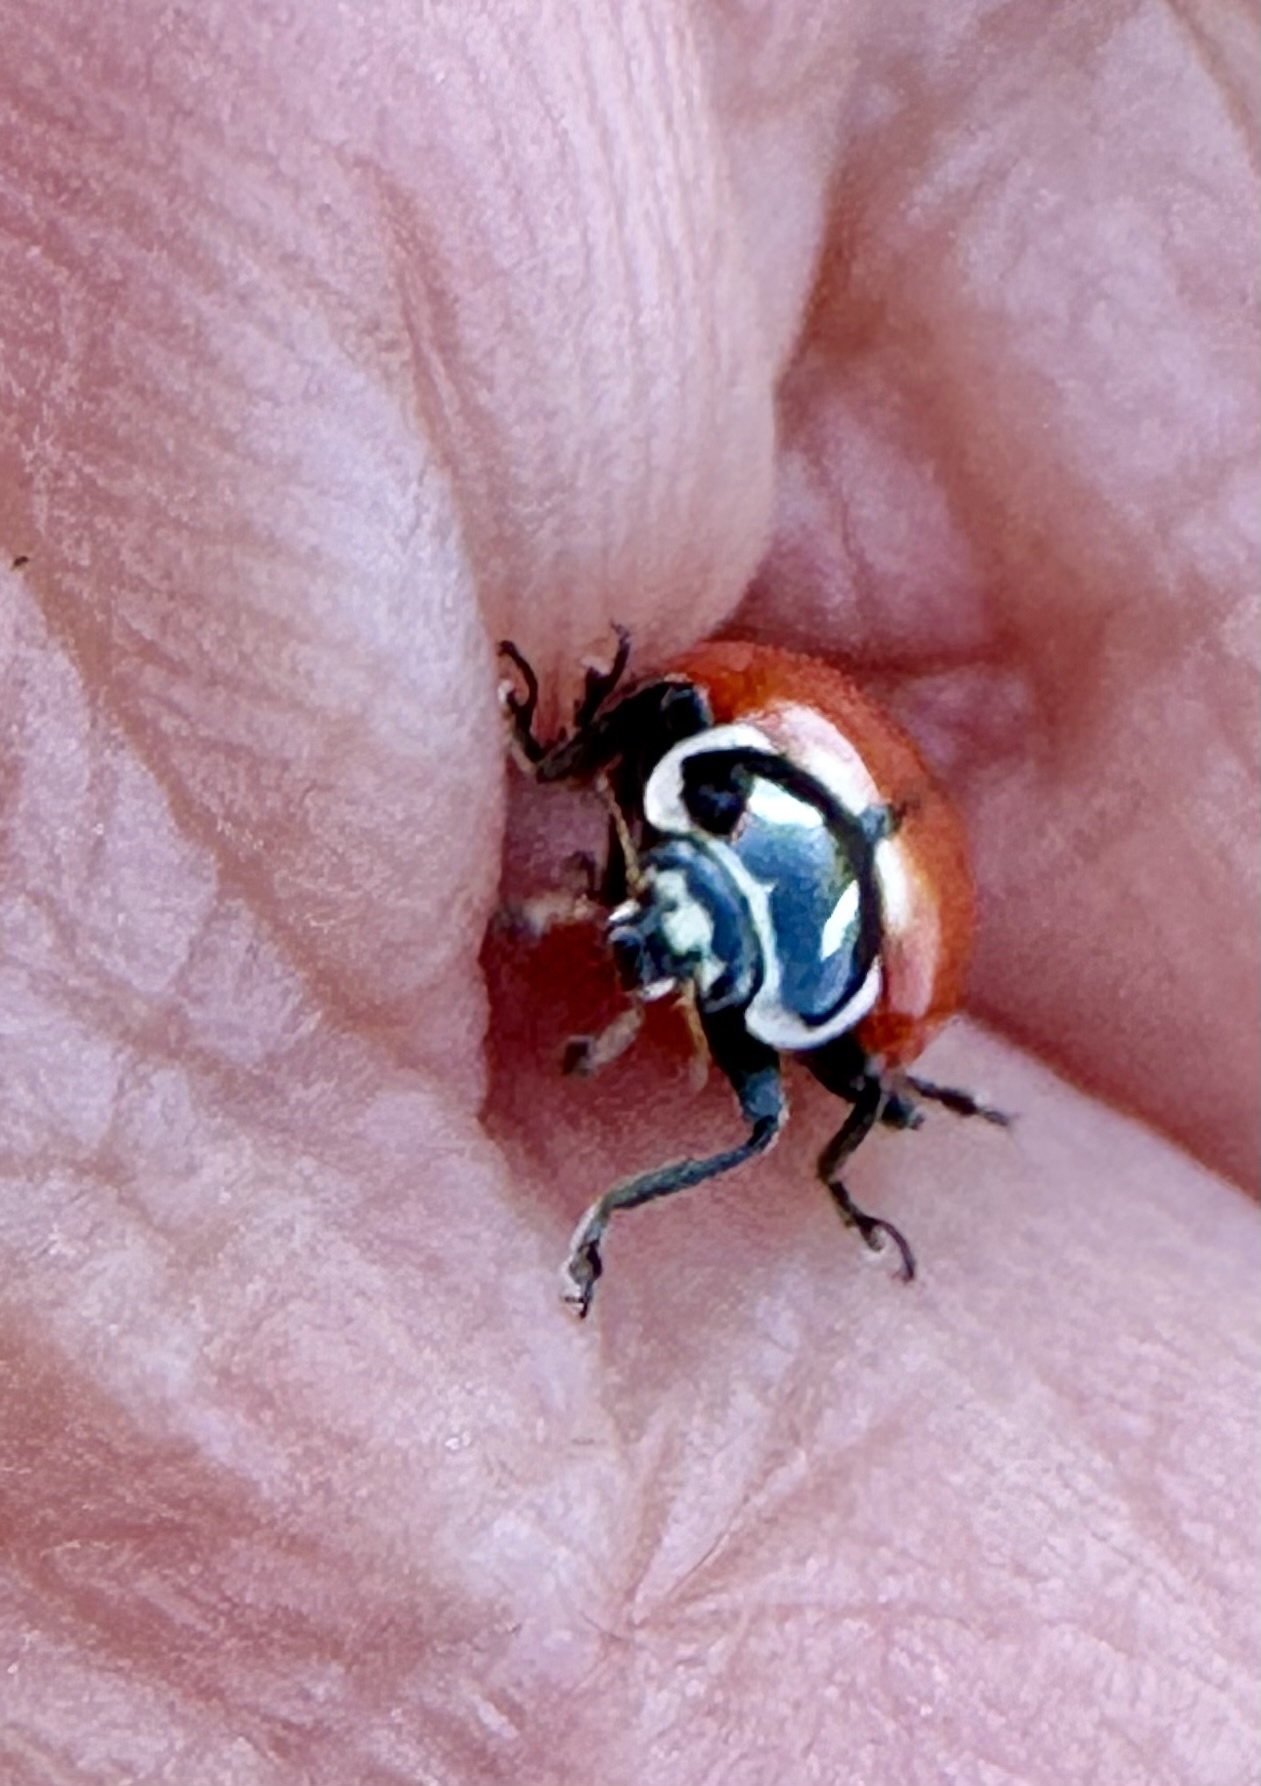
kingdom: Animalia
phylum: Arthropoda
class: Insecta
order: Coleoptera
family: Coccinellidae
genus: Hippodamia
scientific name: Hippodamia convergens
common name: Convergent lady beetle
